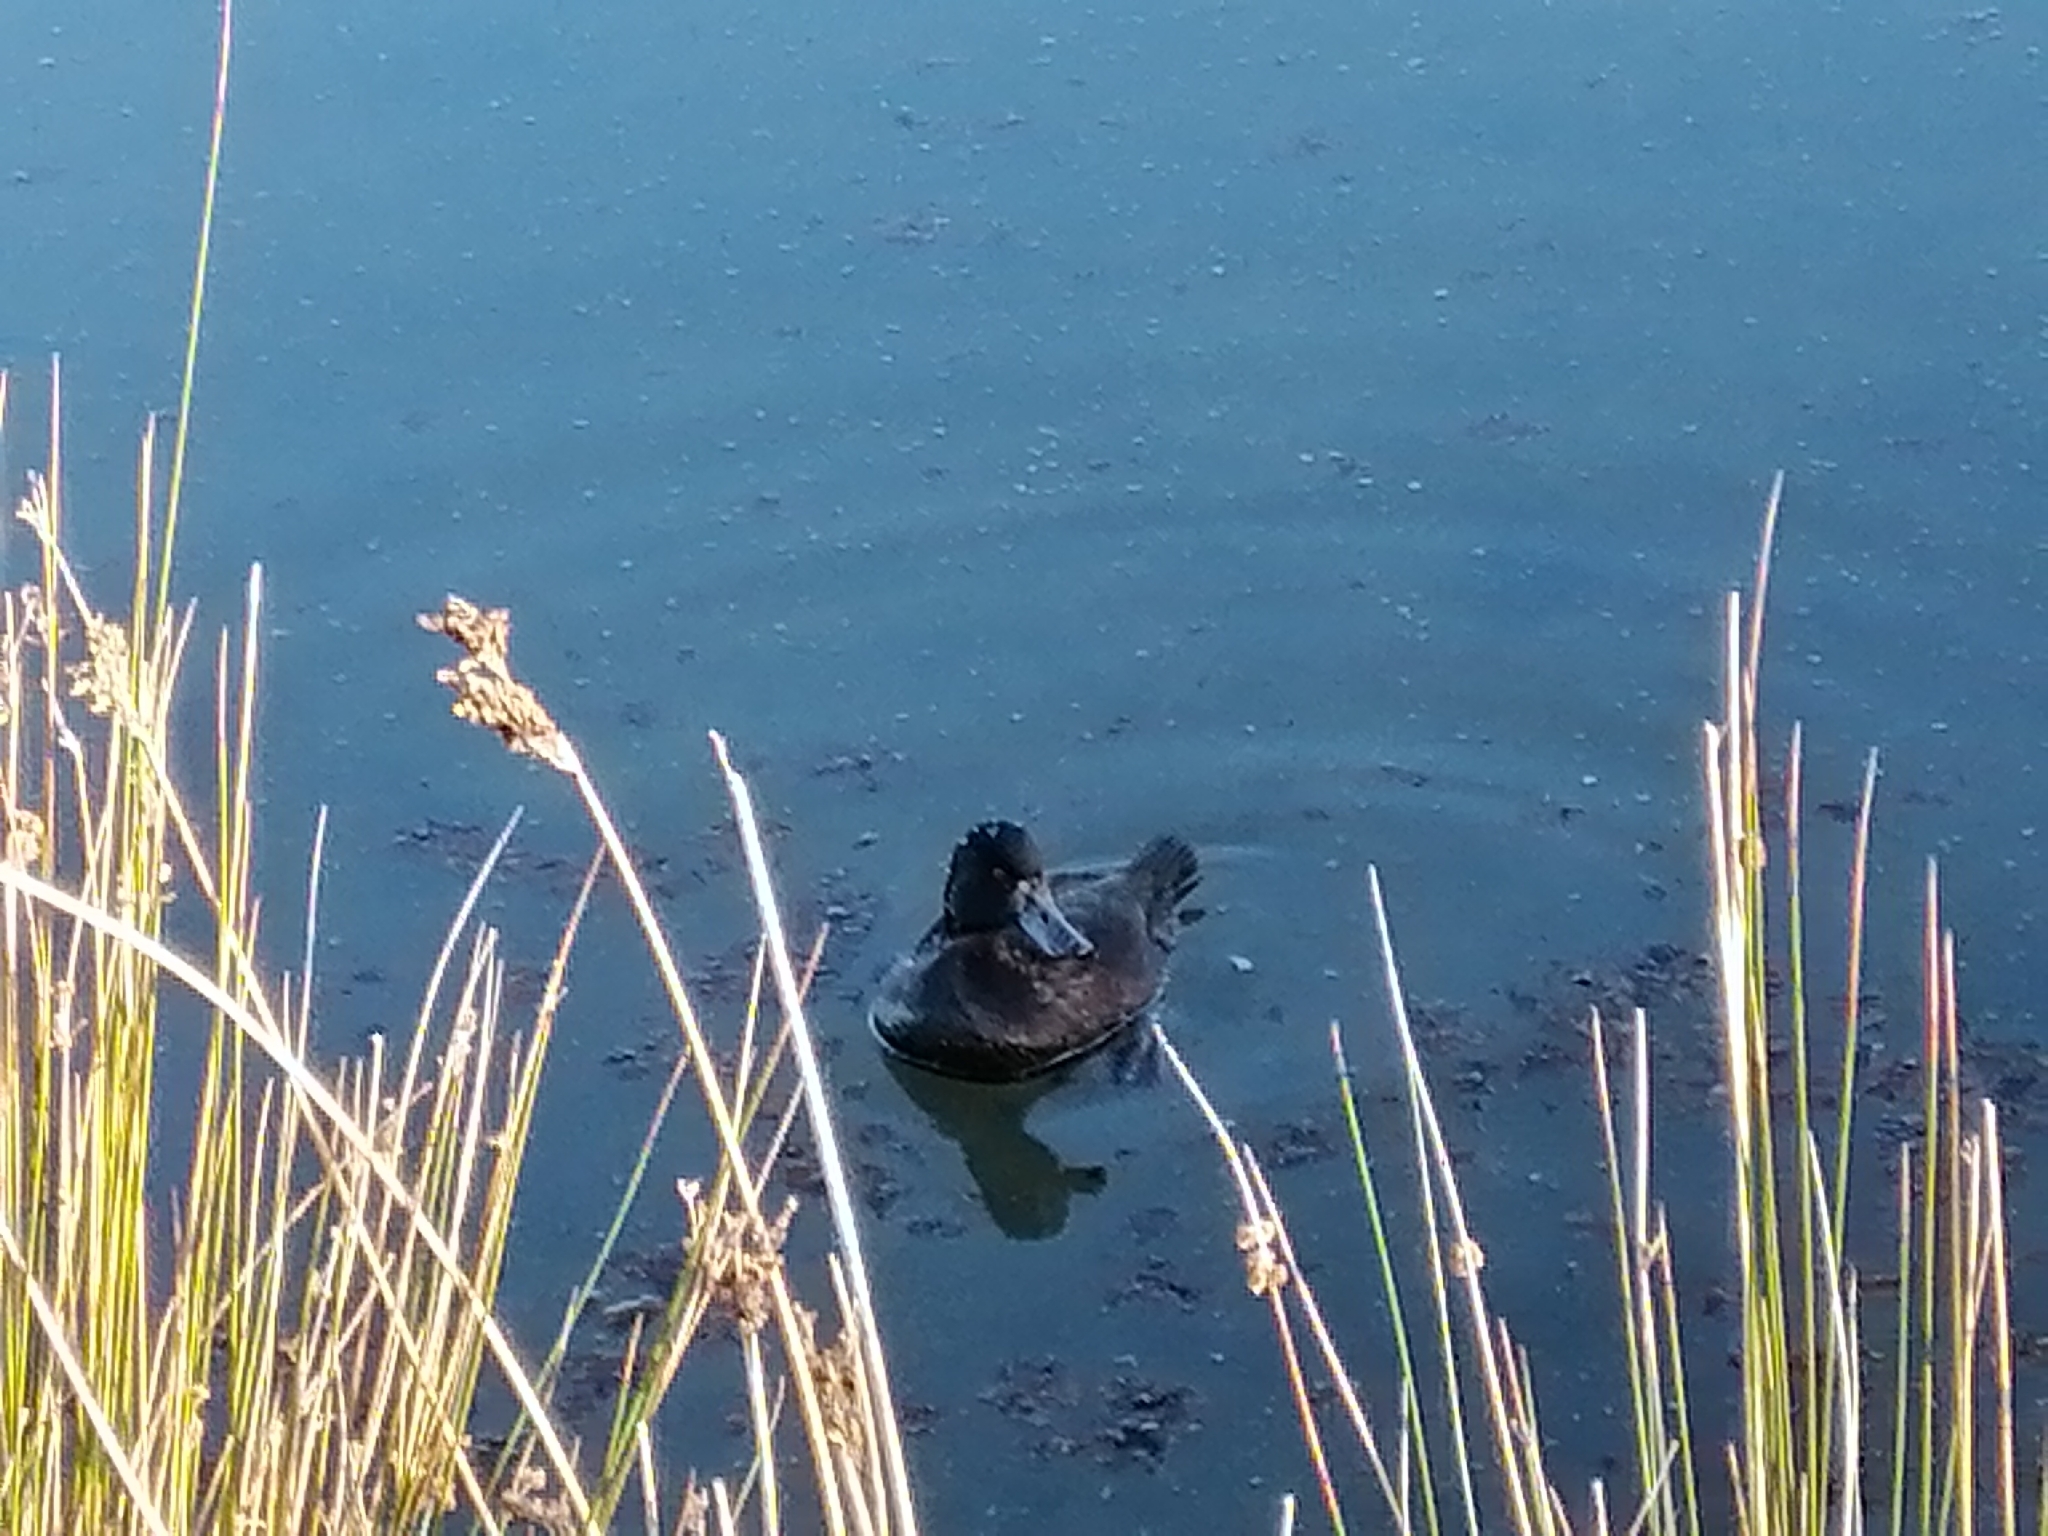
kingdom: Animalia
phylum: Chordata
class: Aves
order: Anseriformes
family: Anatidae
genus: Aythya
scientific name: Aythya novaeseelandiae
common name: New zealand scaup
